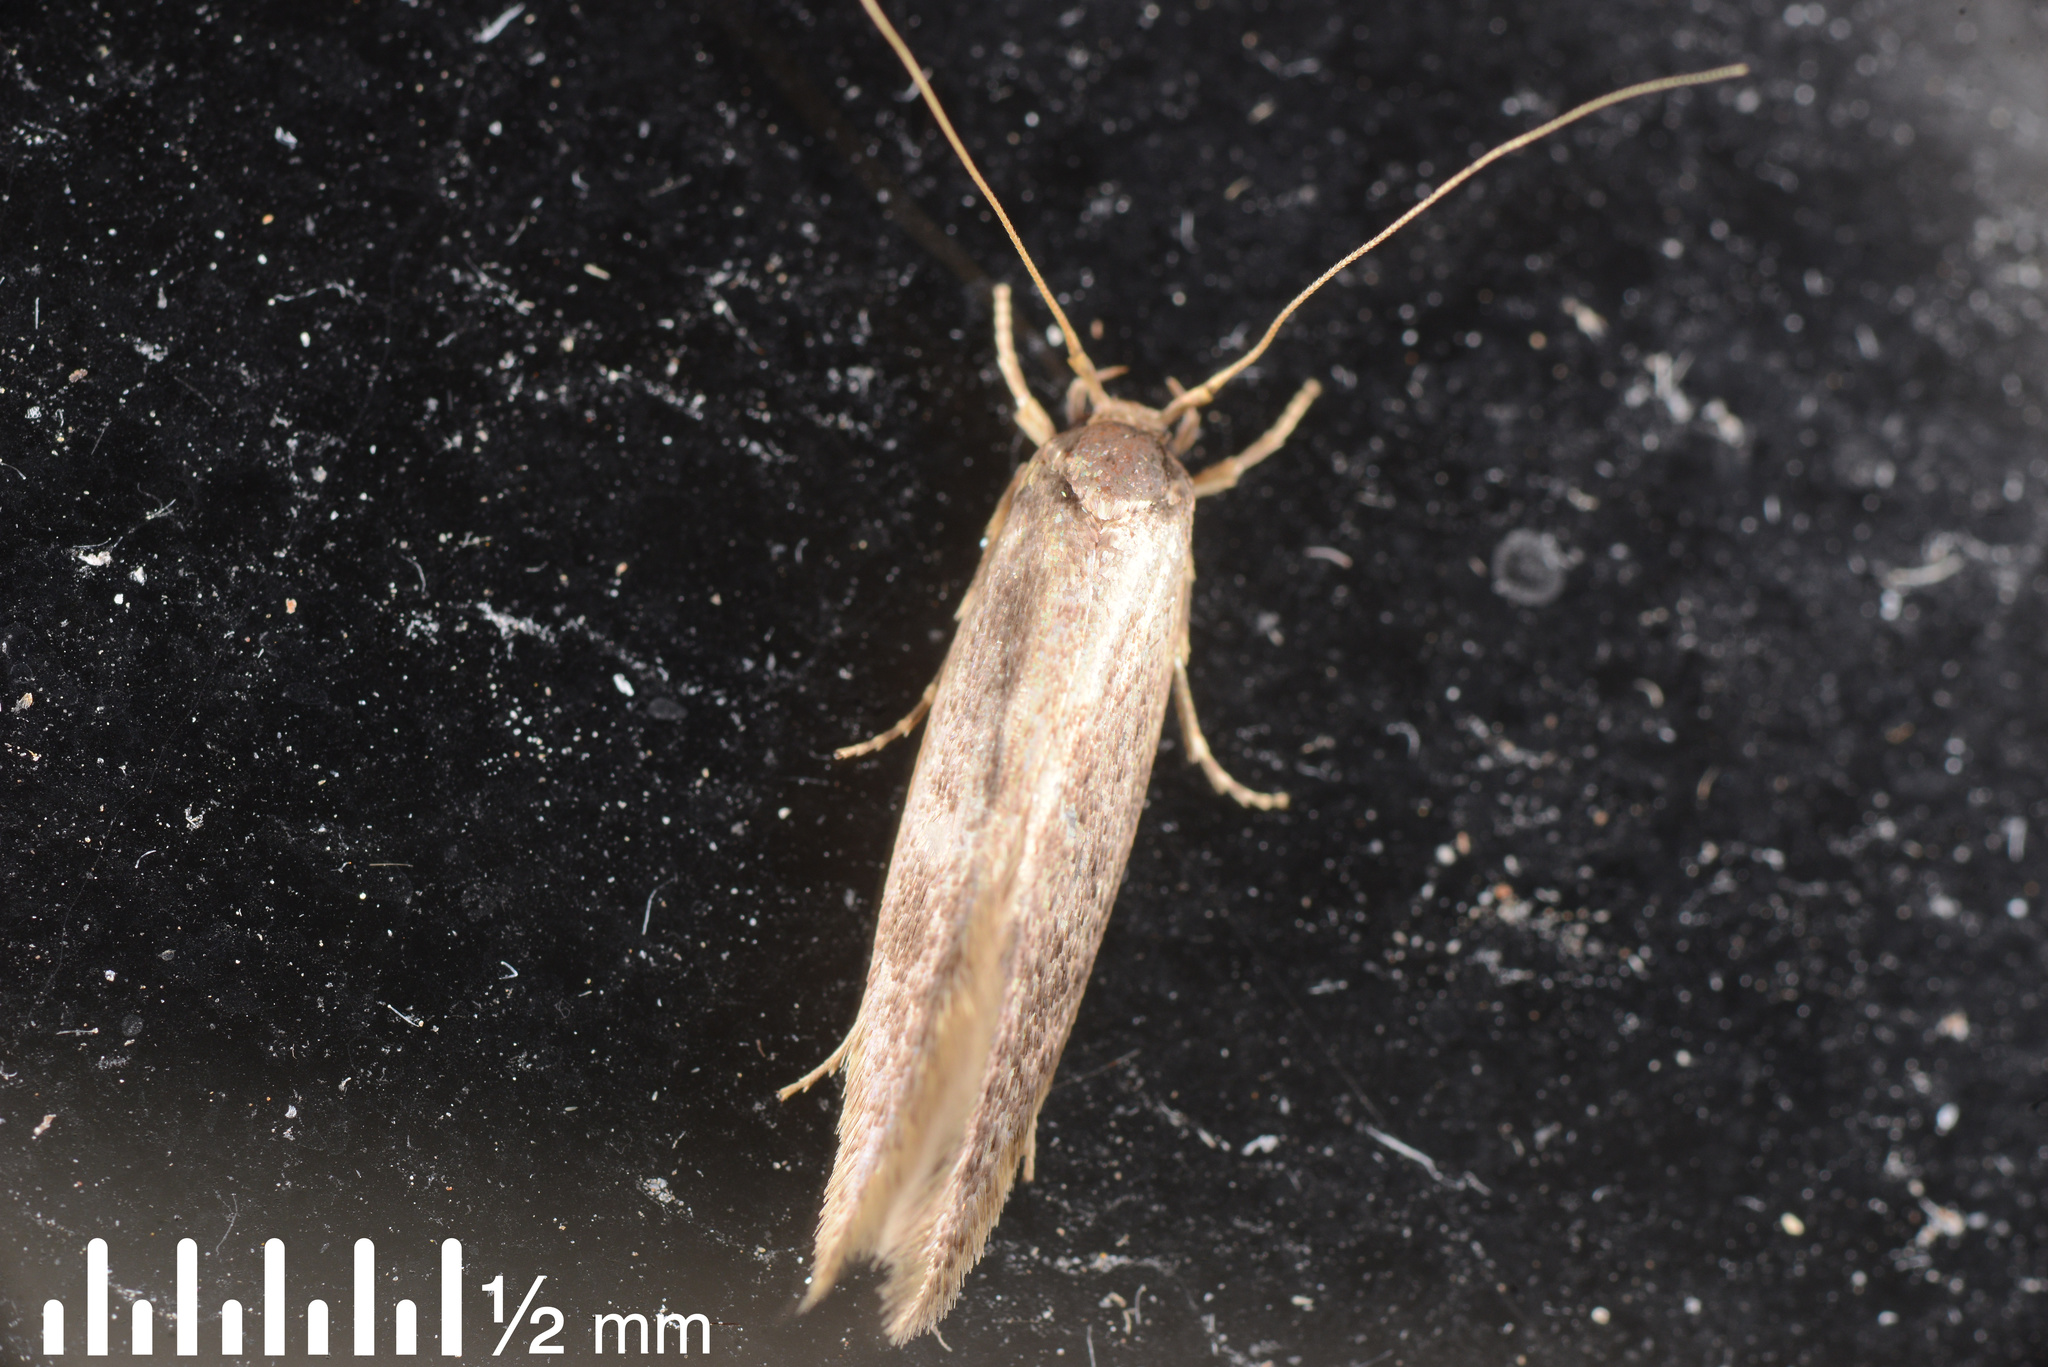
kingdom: Animalia
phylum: Arthropoda
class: Insecta
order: Lepidoptera
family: Tineidae
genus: Opogona
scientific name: Opogona omoscopa
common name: Moth
